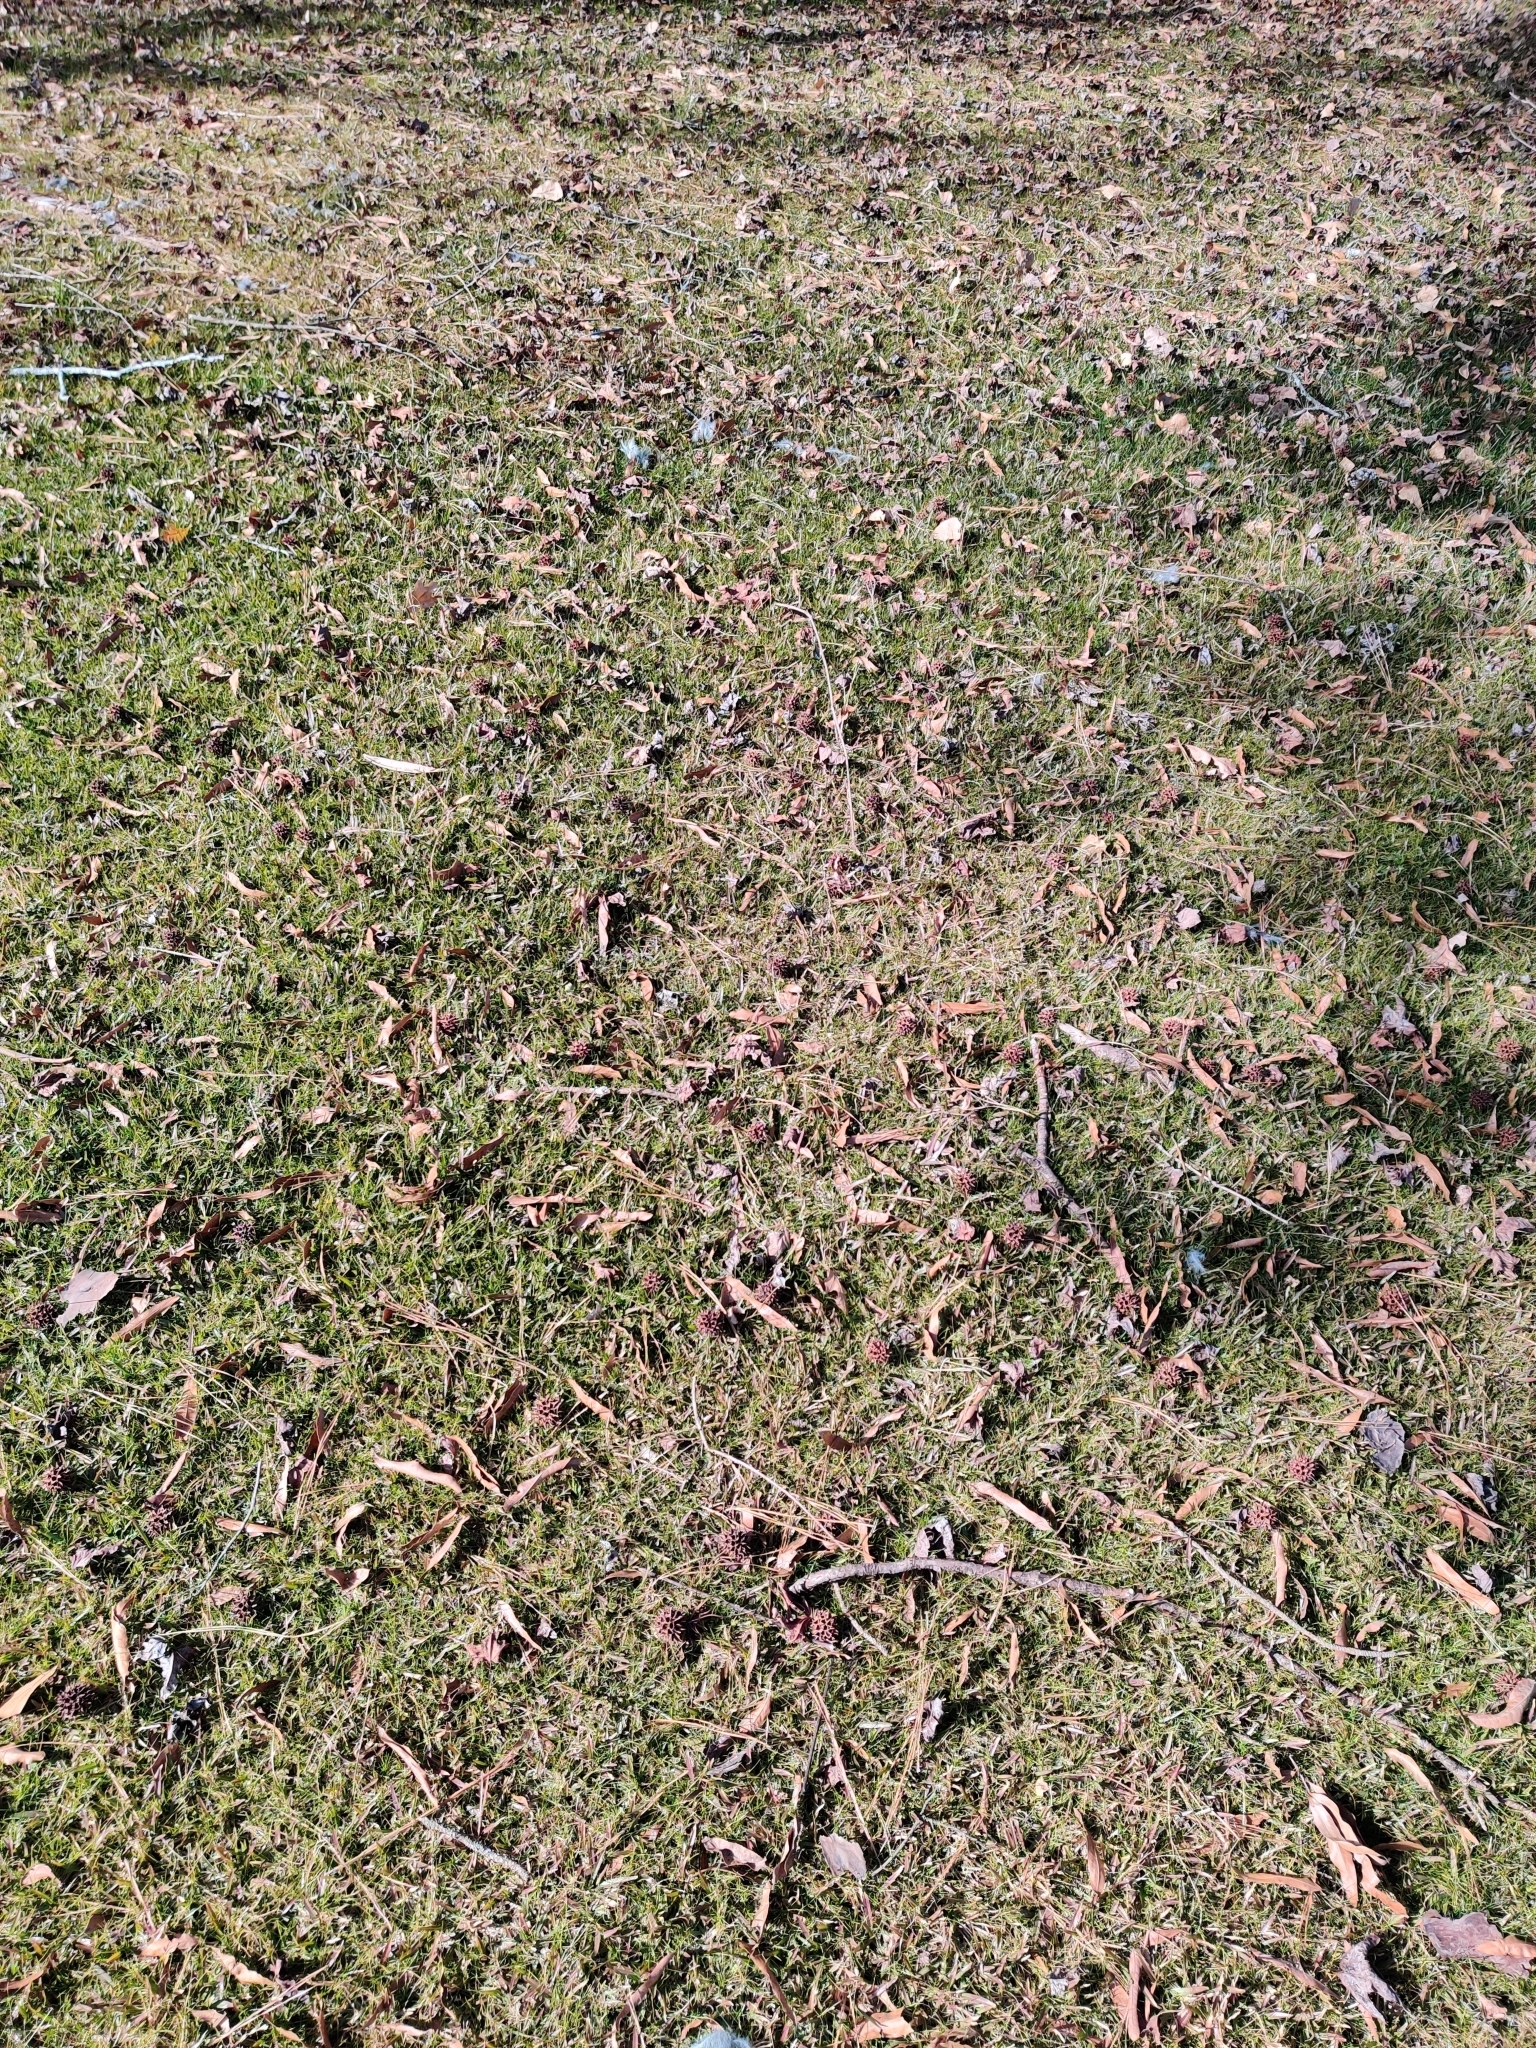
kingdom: Animalia
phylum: Chordata
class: Aves
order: Passeriformes
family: Corvidae
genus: Cyanocitta
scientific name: Cyanocitta cristata
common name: Blue jay
